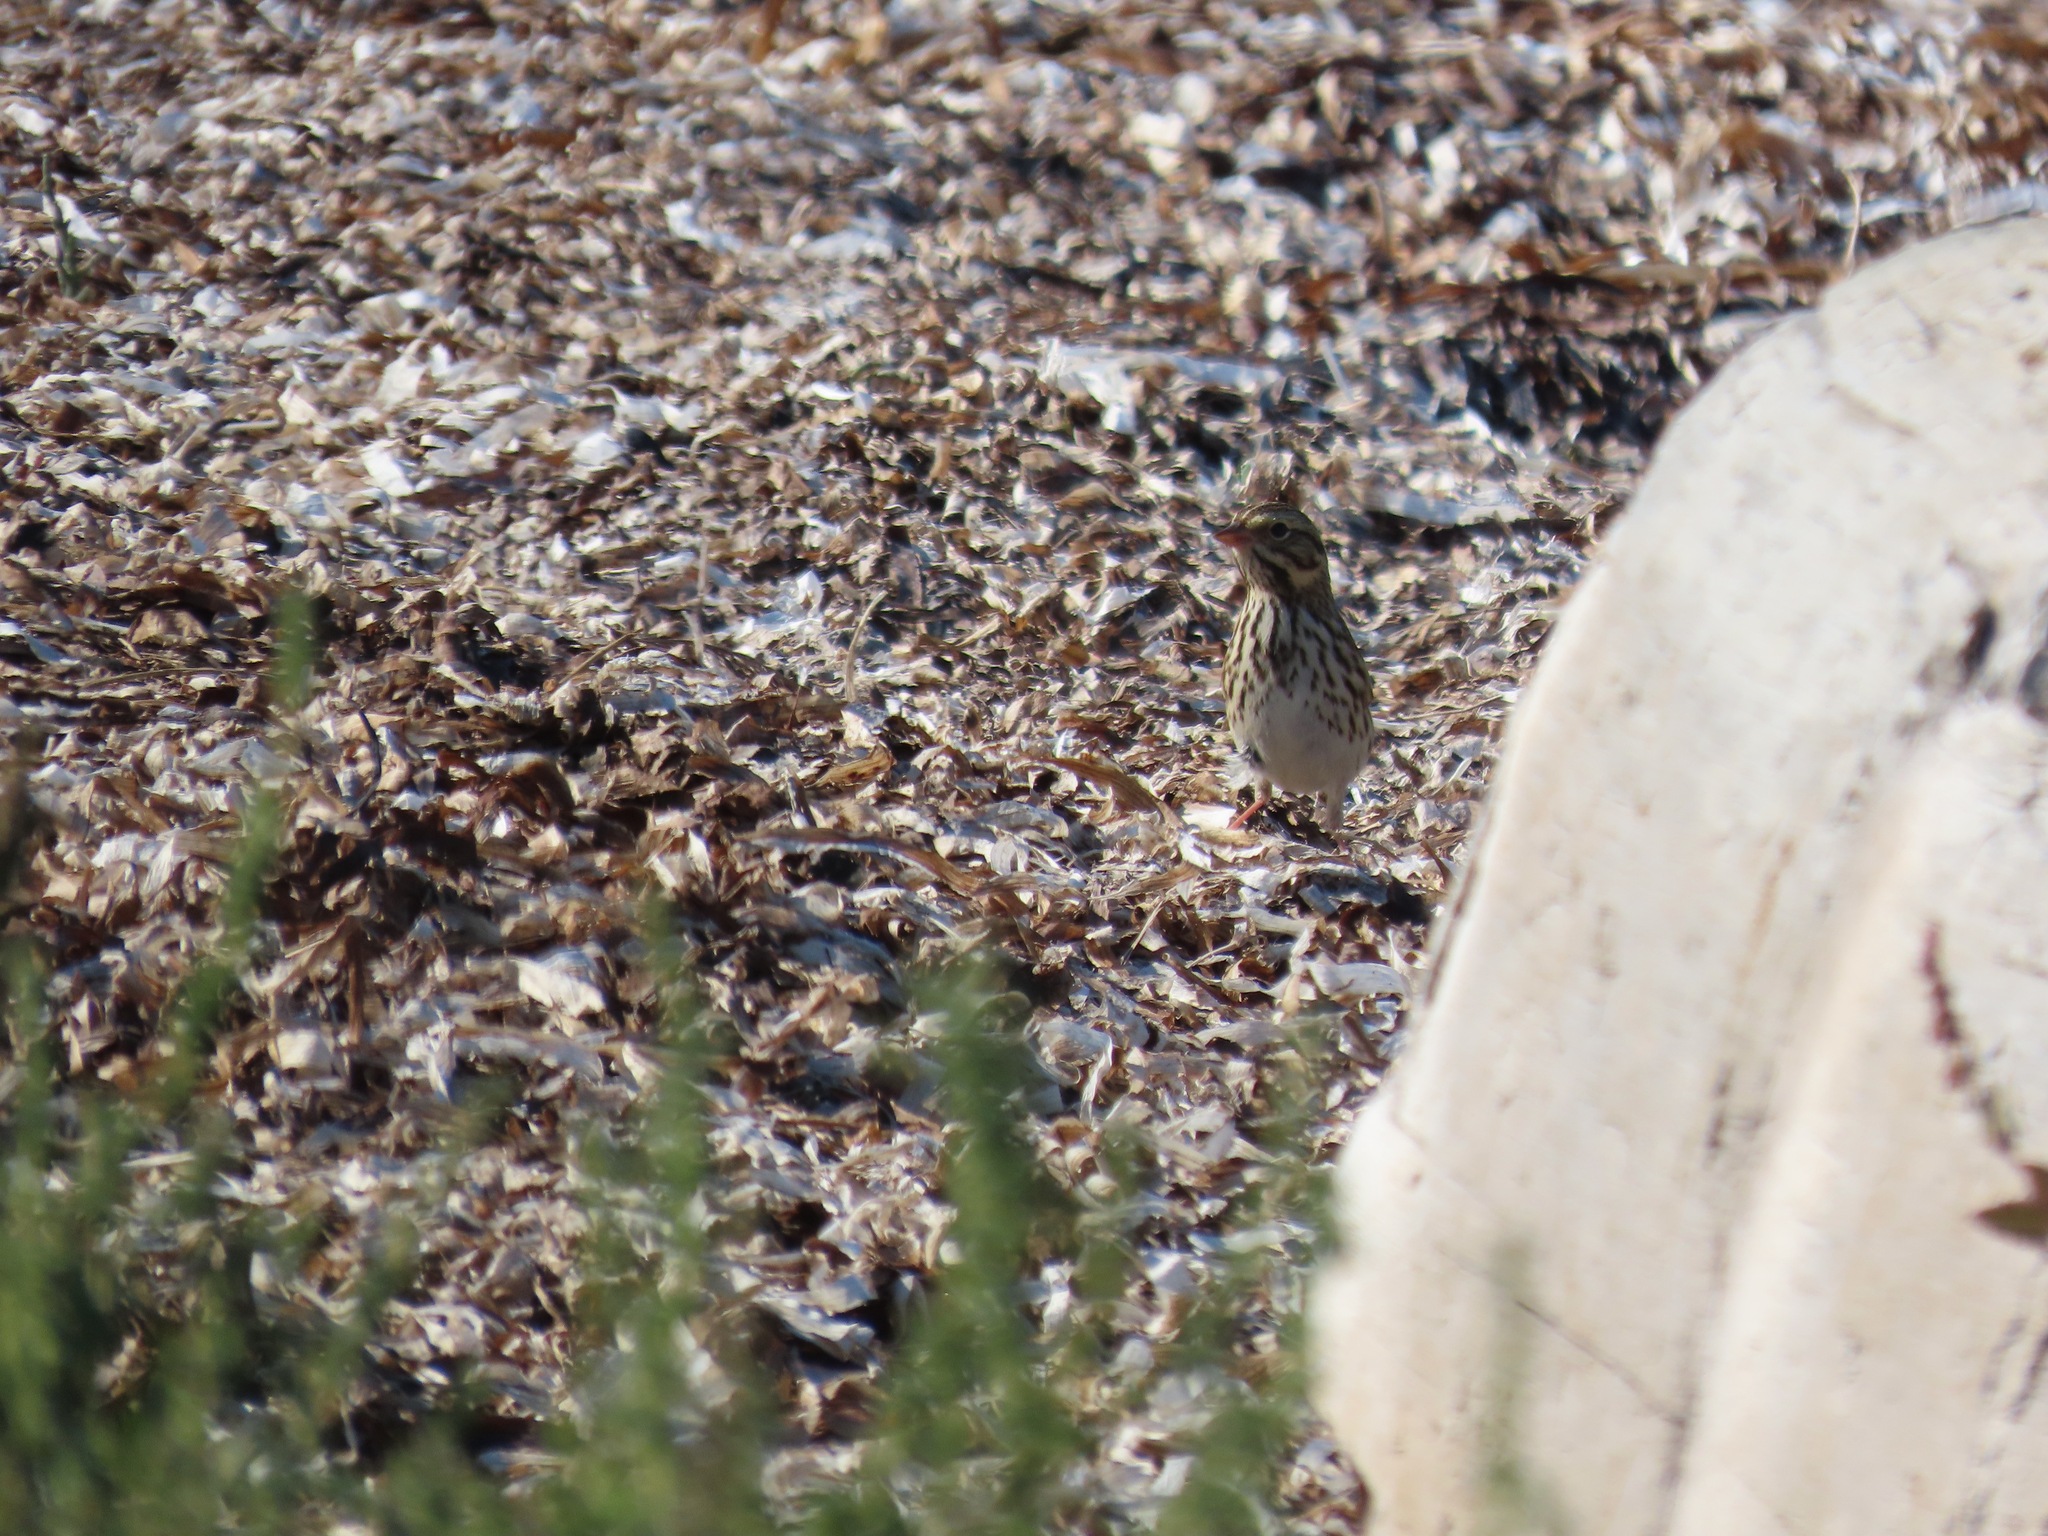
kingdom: Animalia
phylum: Chordata
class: Aves
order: Passeriformes
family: Passerellidae
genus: Passerculus
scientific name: Passerculus sandwichensis
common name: Savannah sparrow
